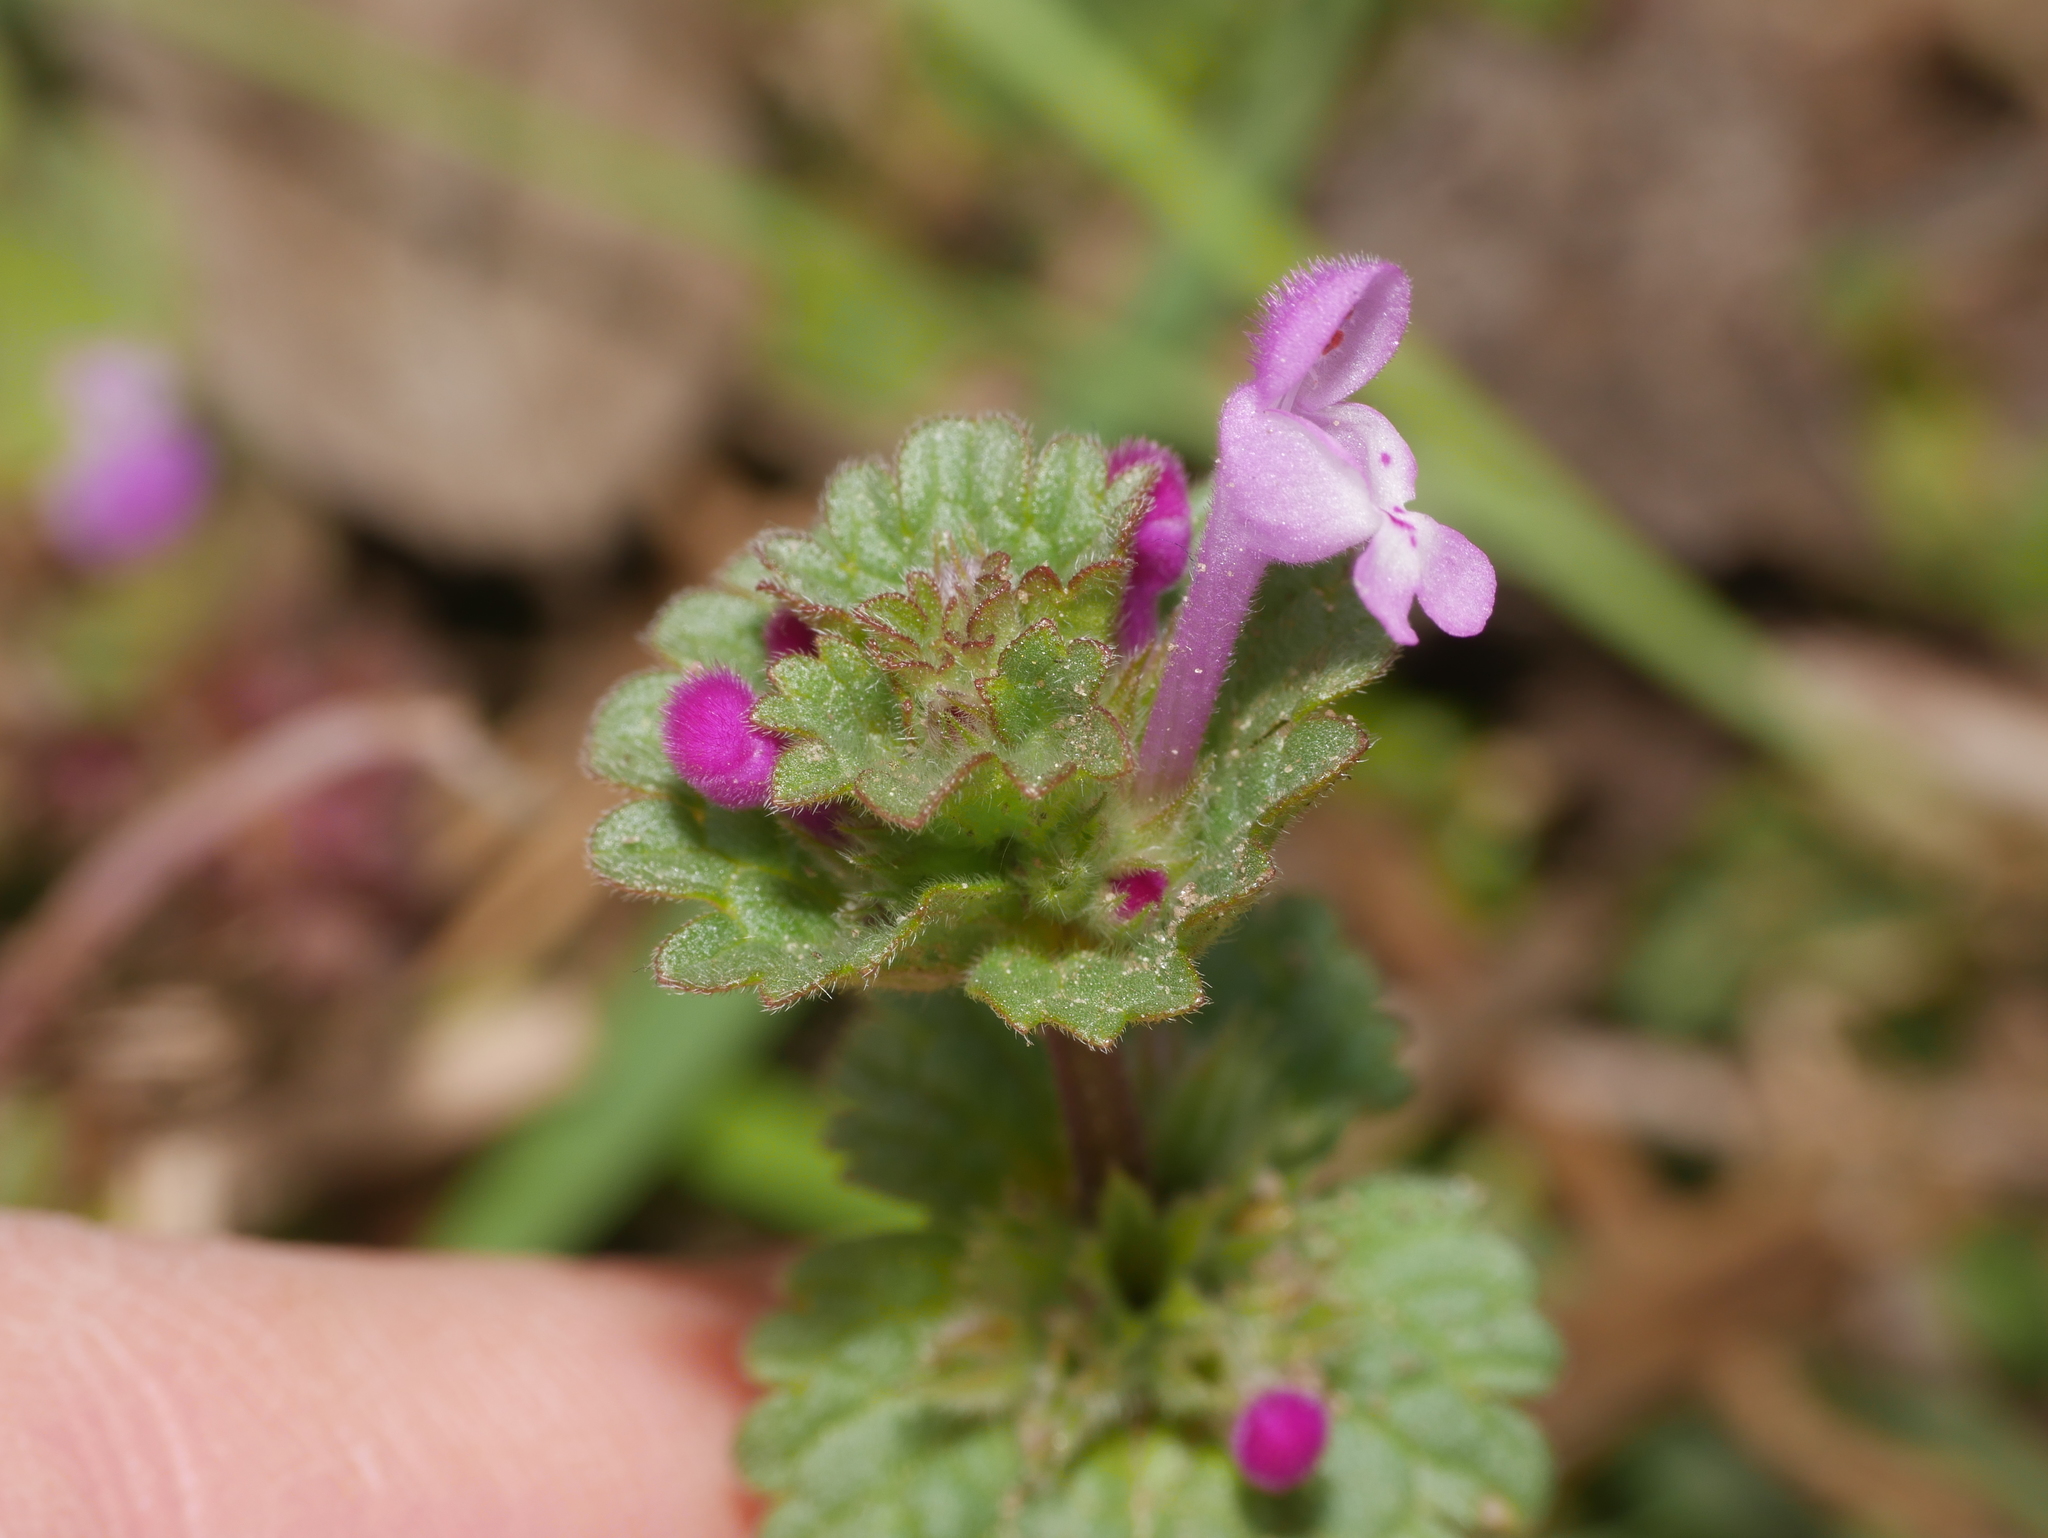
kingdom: Plantae
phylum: Tracheophyta
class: Magnoliopsida
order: Lamiales
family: Lamiaceae
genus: Lamium
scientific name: Lamium amplexicaule
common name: Henbit dead-nettle
